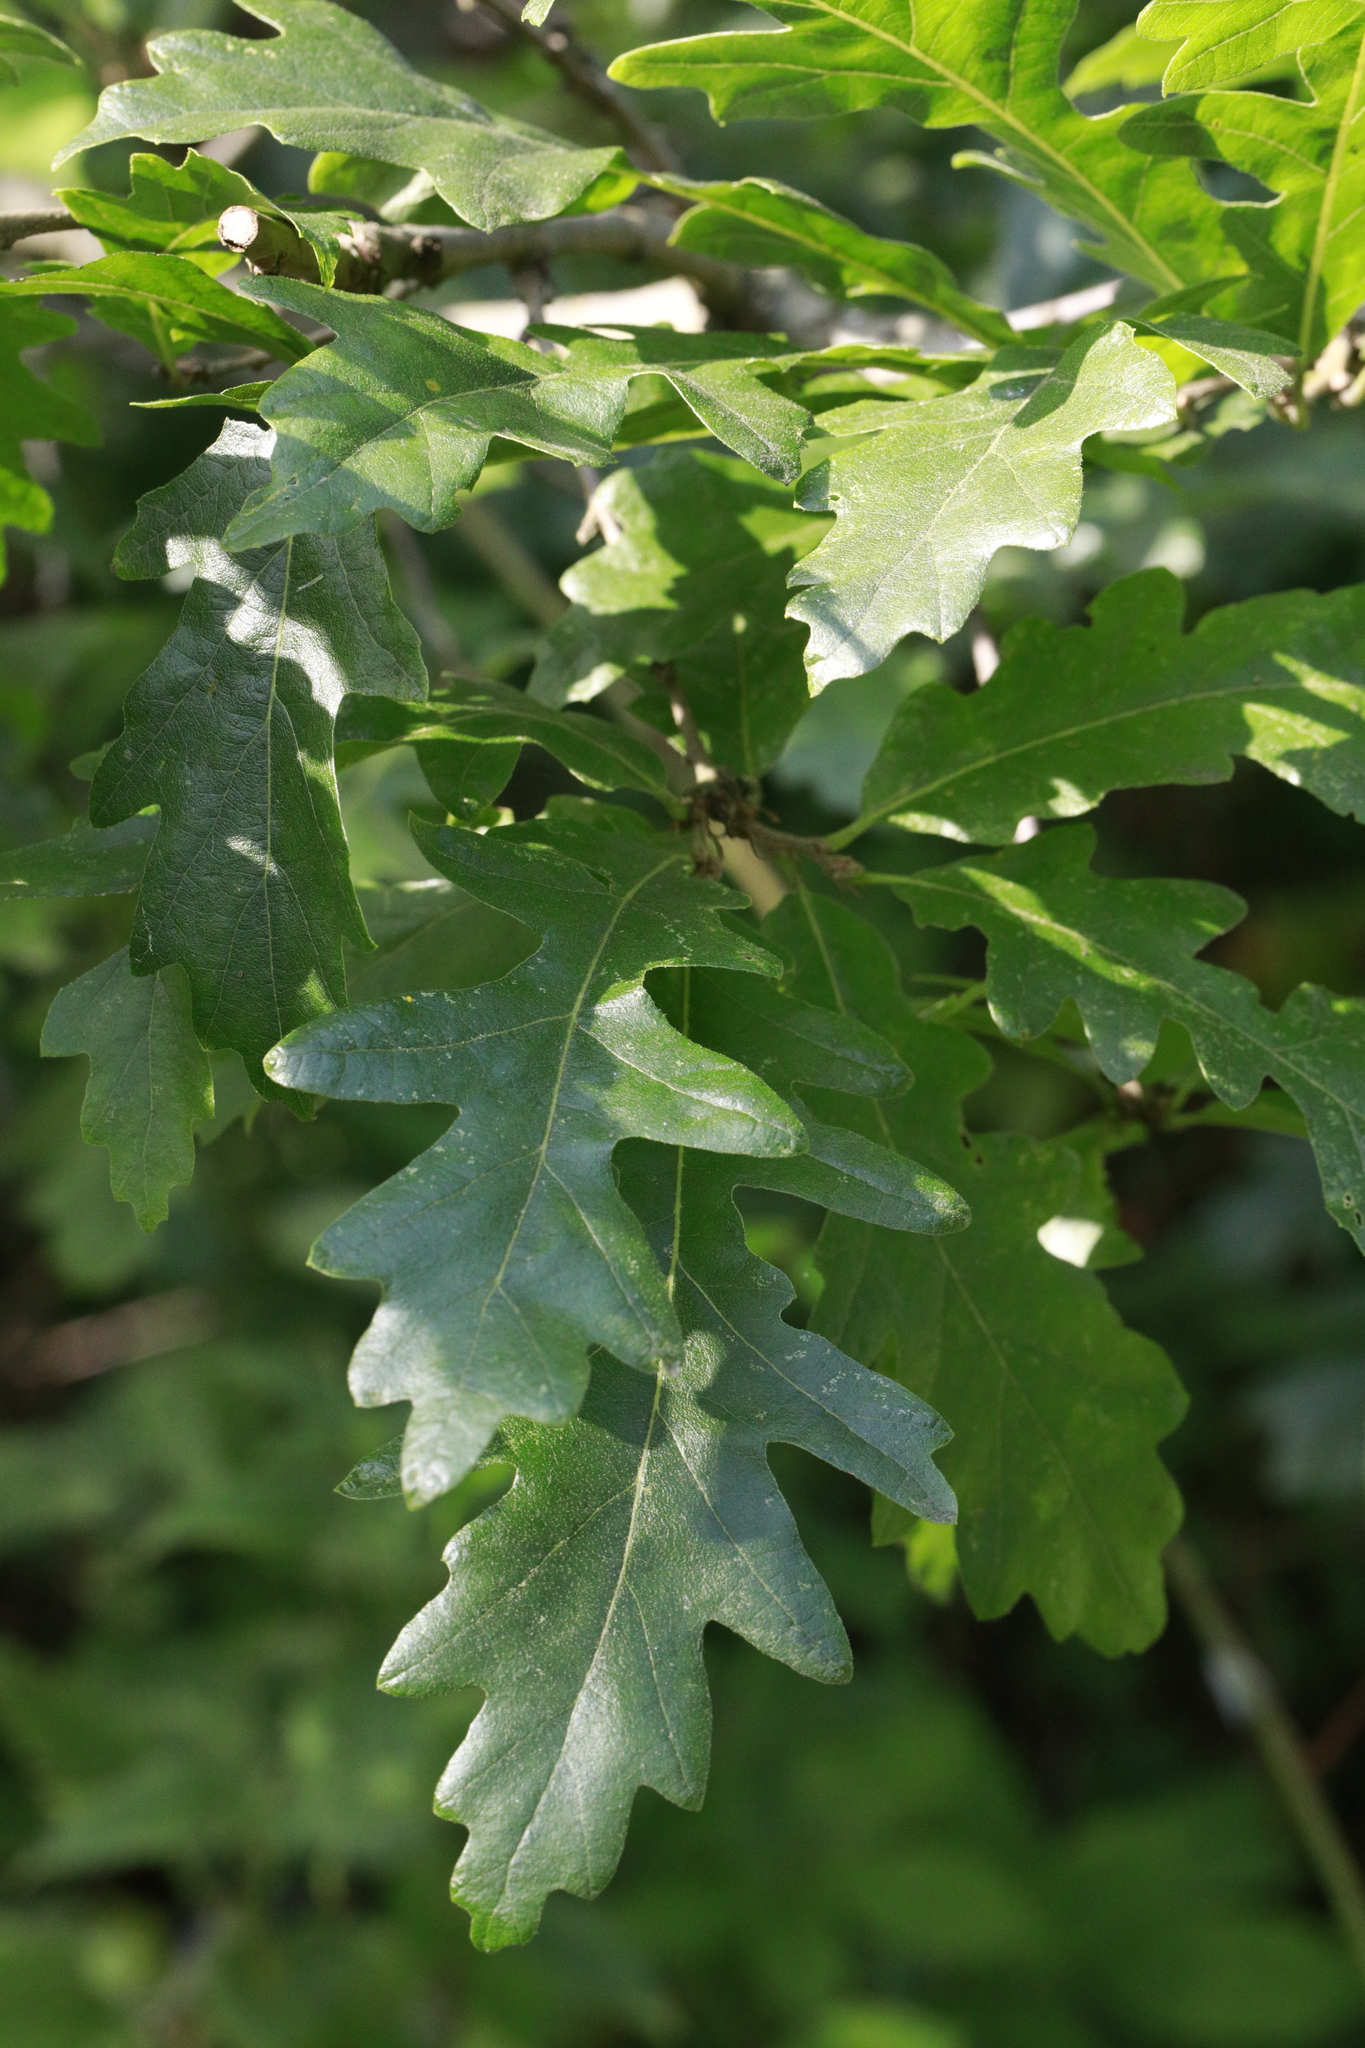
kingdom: Plantae
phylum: Tracheophyta
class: Magnoliopsida
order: Fagales
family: Fagaceae
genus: Quercus
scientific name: Quercus robur
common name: Pedunculate oak
